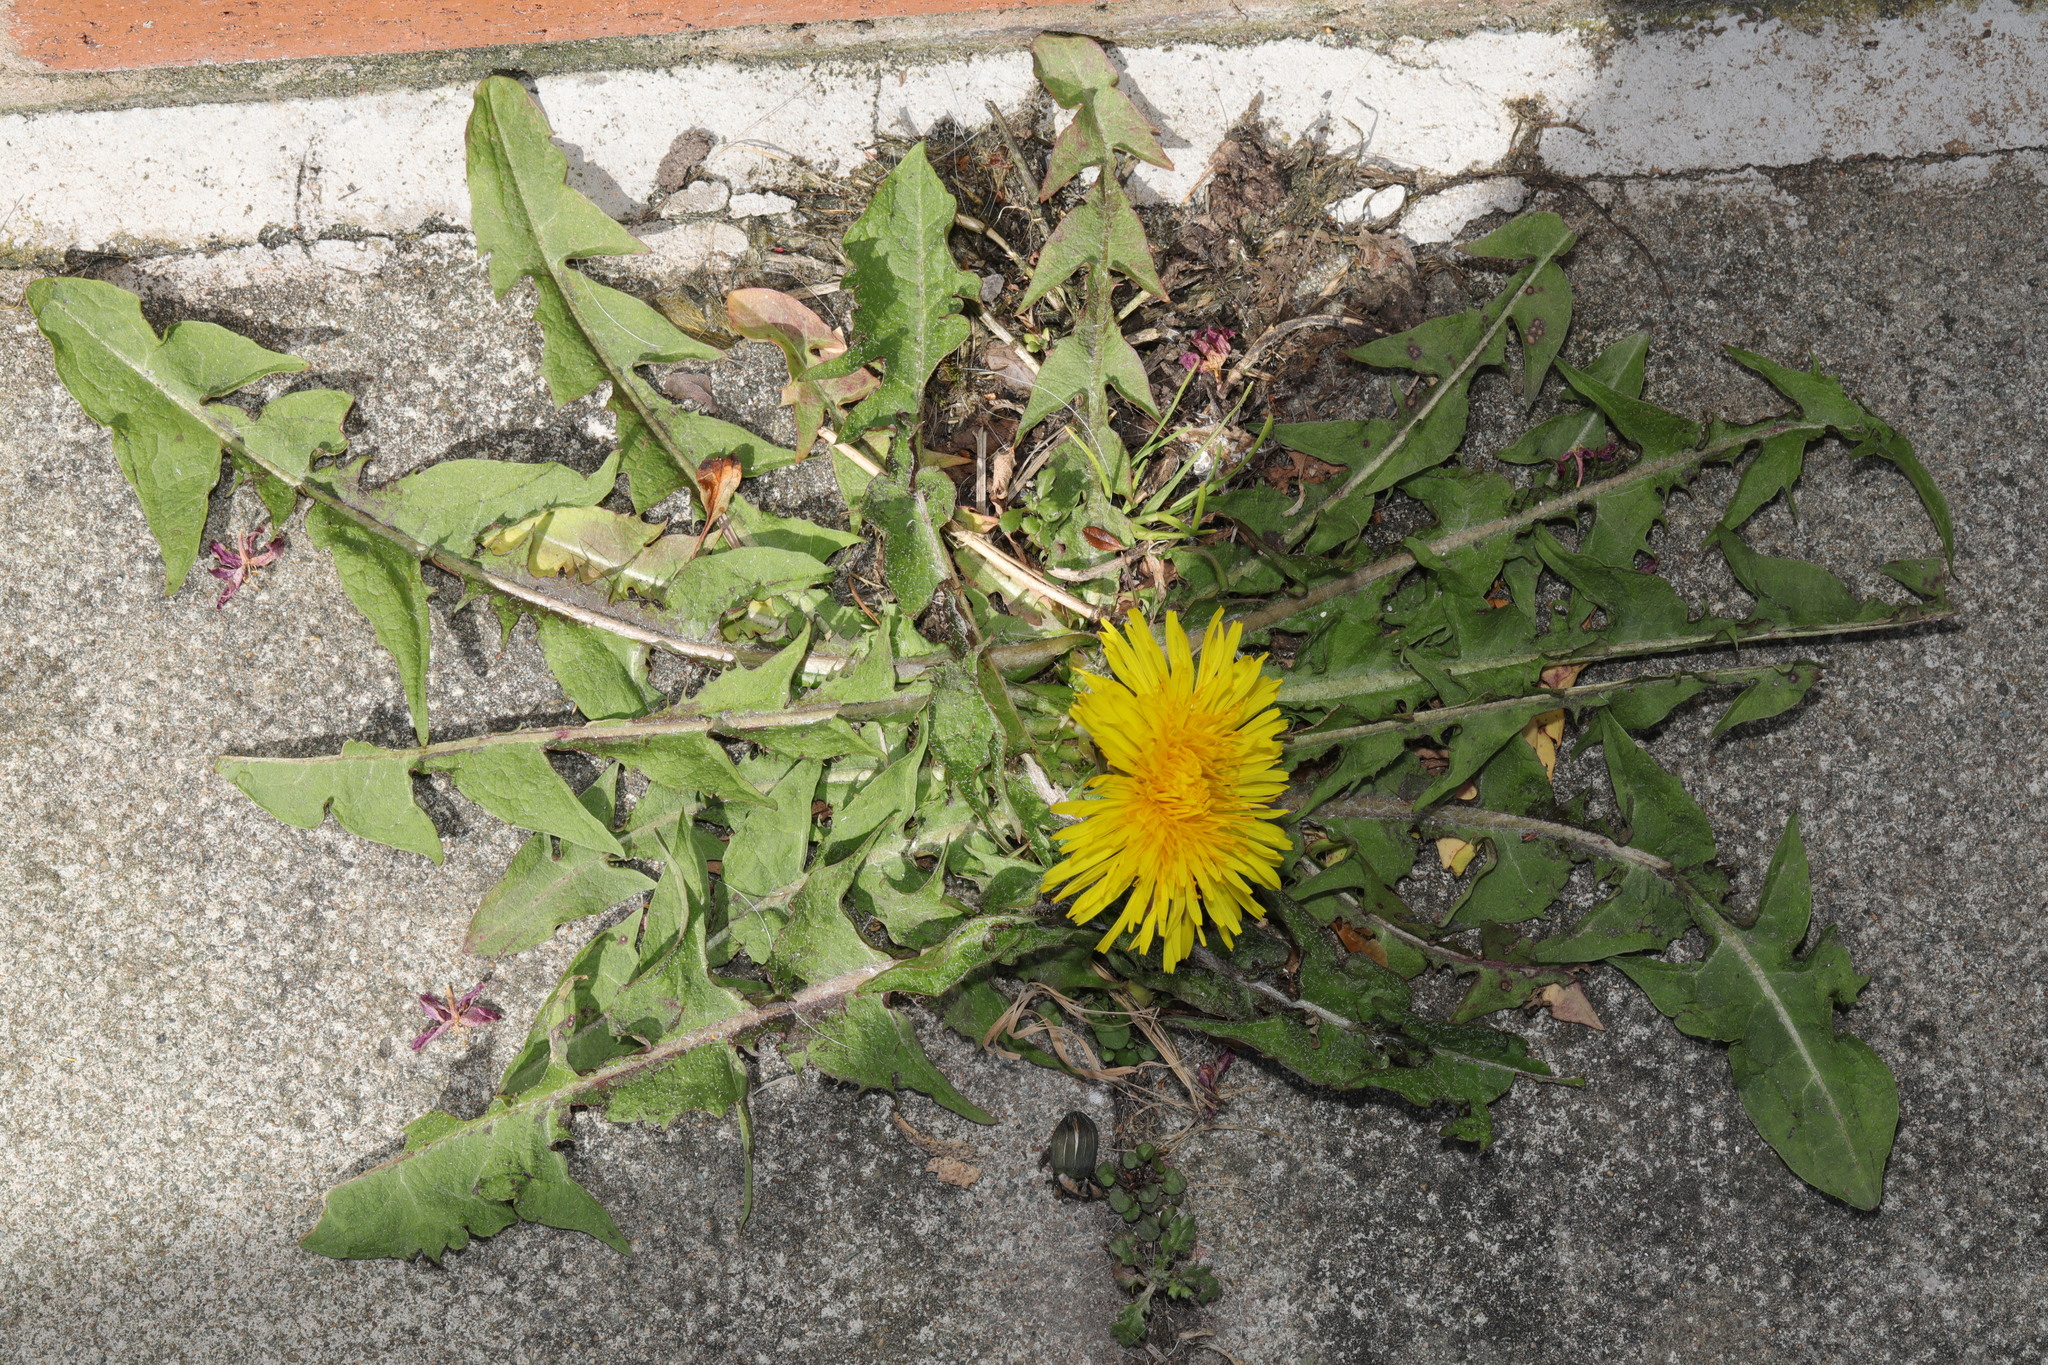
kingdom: Plantae
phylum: Tracheophyta
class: Magnoliopsida
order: Asterales
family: Asteraceae
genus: Taraxacum
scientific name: Taraxacum officinale
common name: Common dandelion
